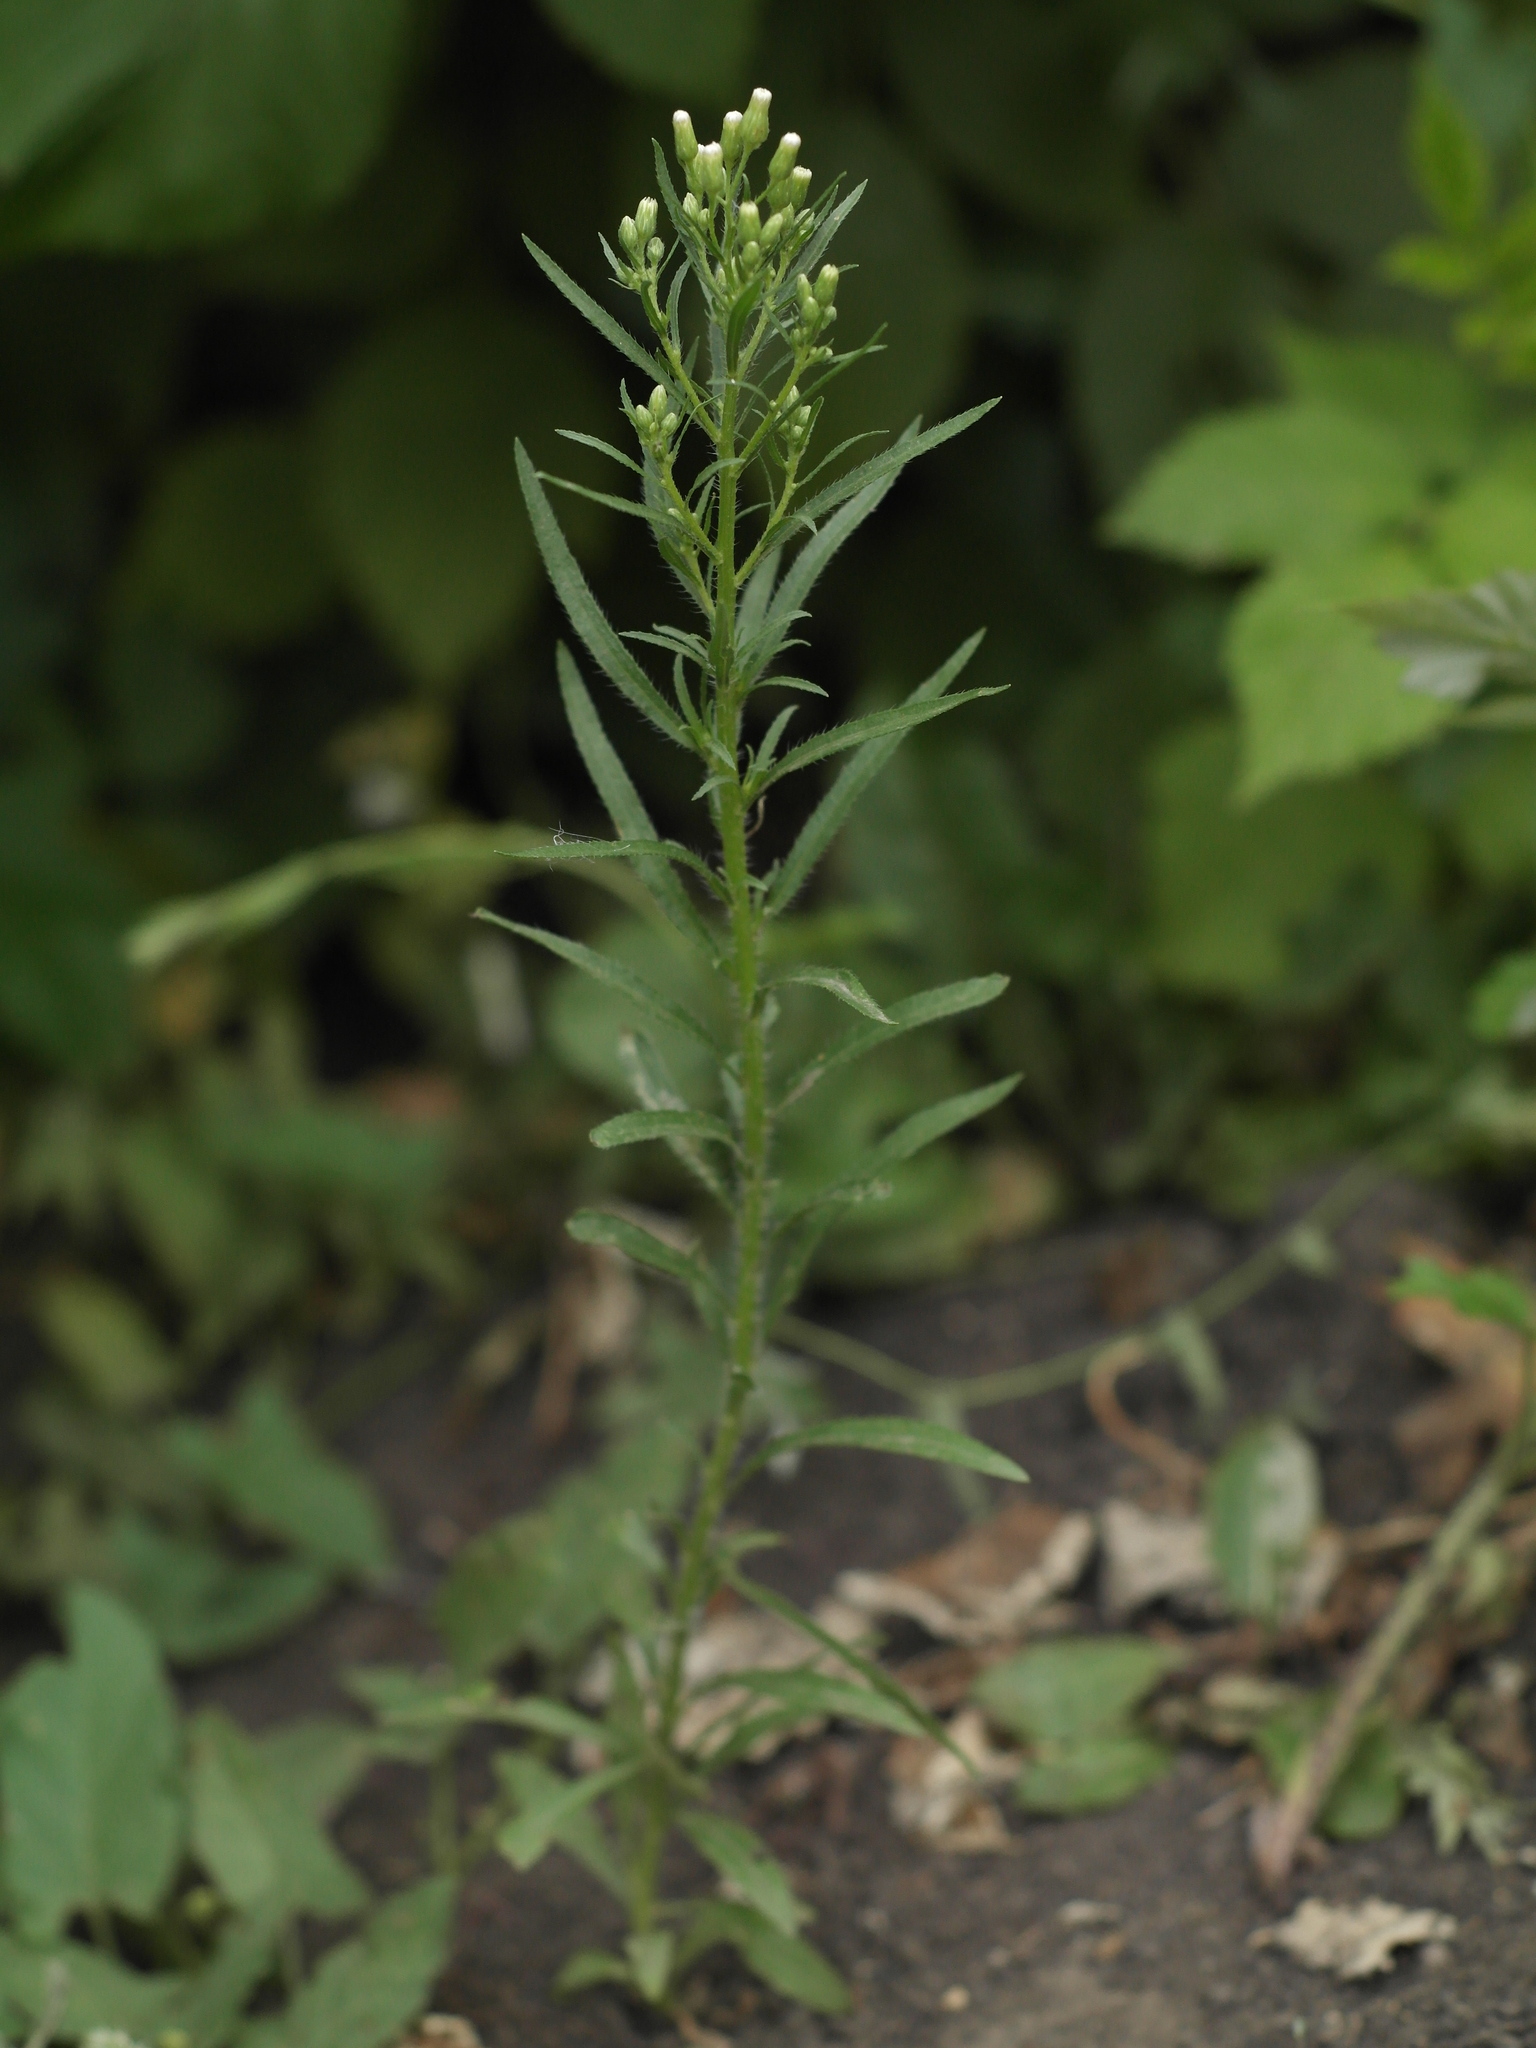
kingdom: Plantae
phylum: Tracheophyta
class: Magnoliopsida
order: Asterales
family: Asteraceae
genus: Erigeron
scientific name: Erigeron canadensis
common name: Canadian fleabane
